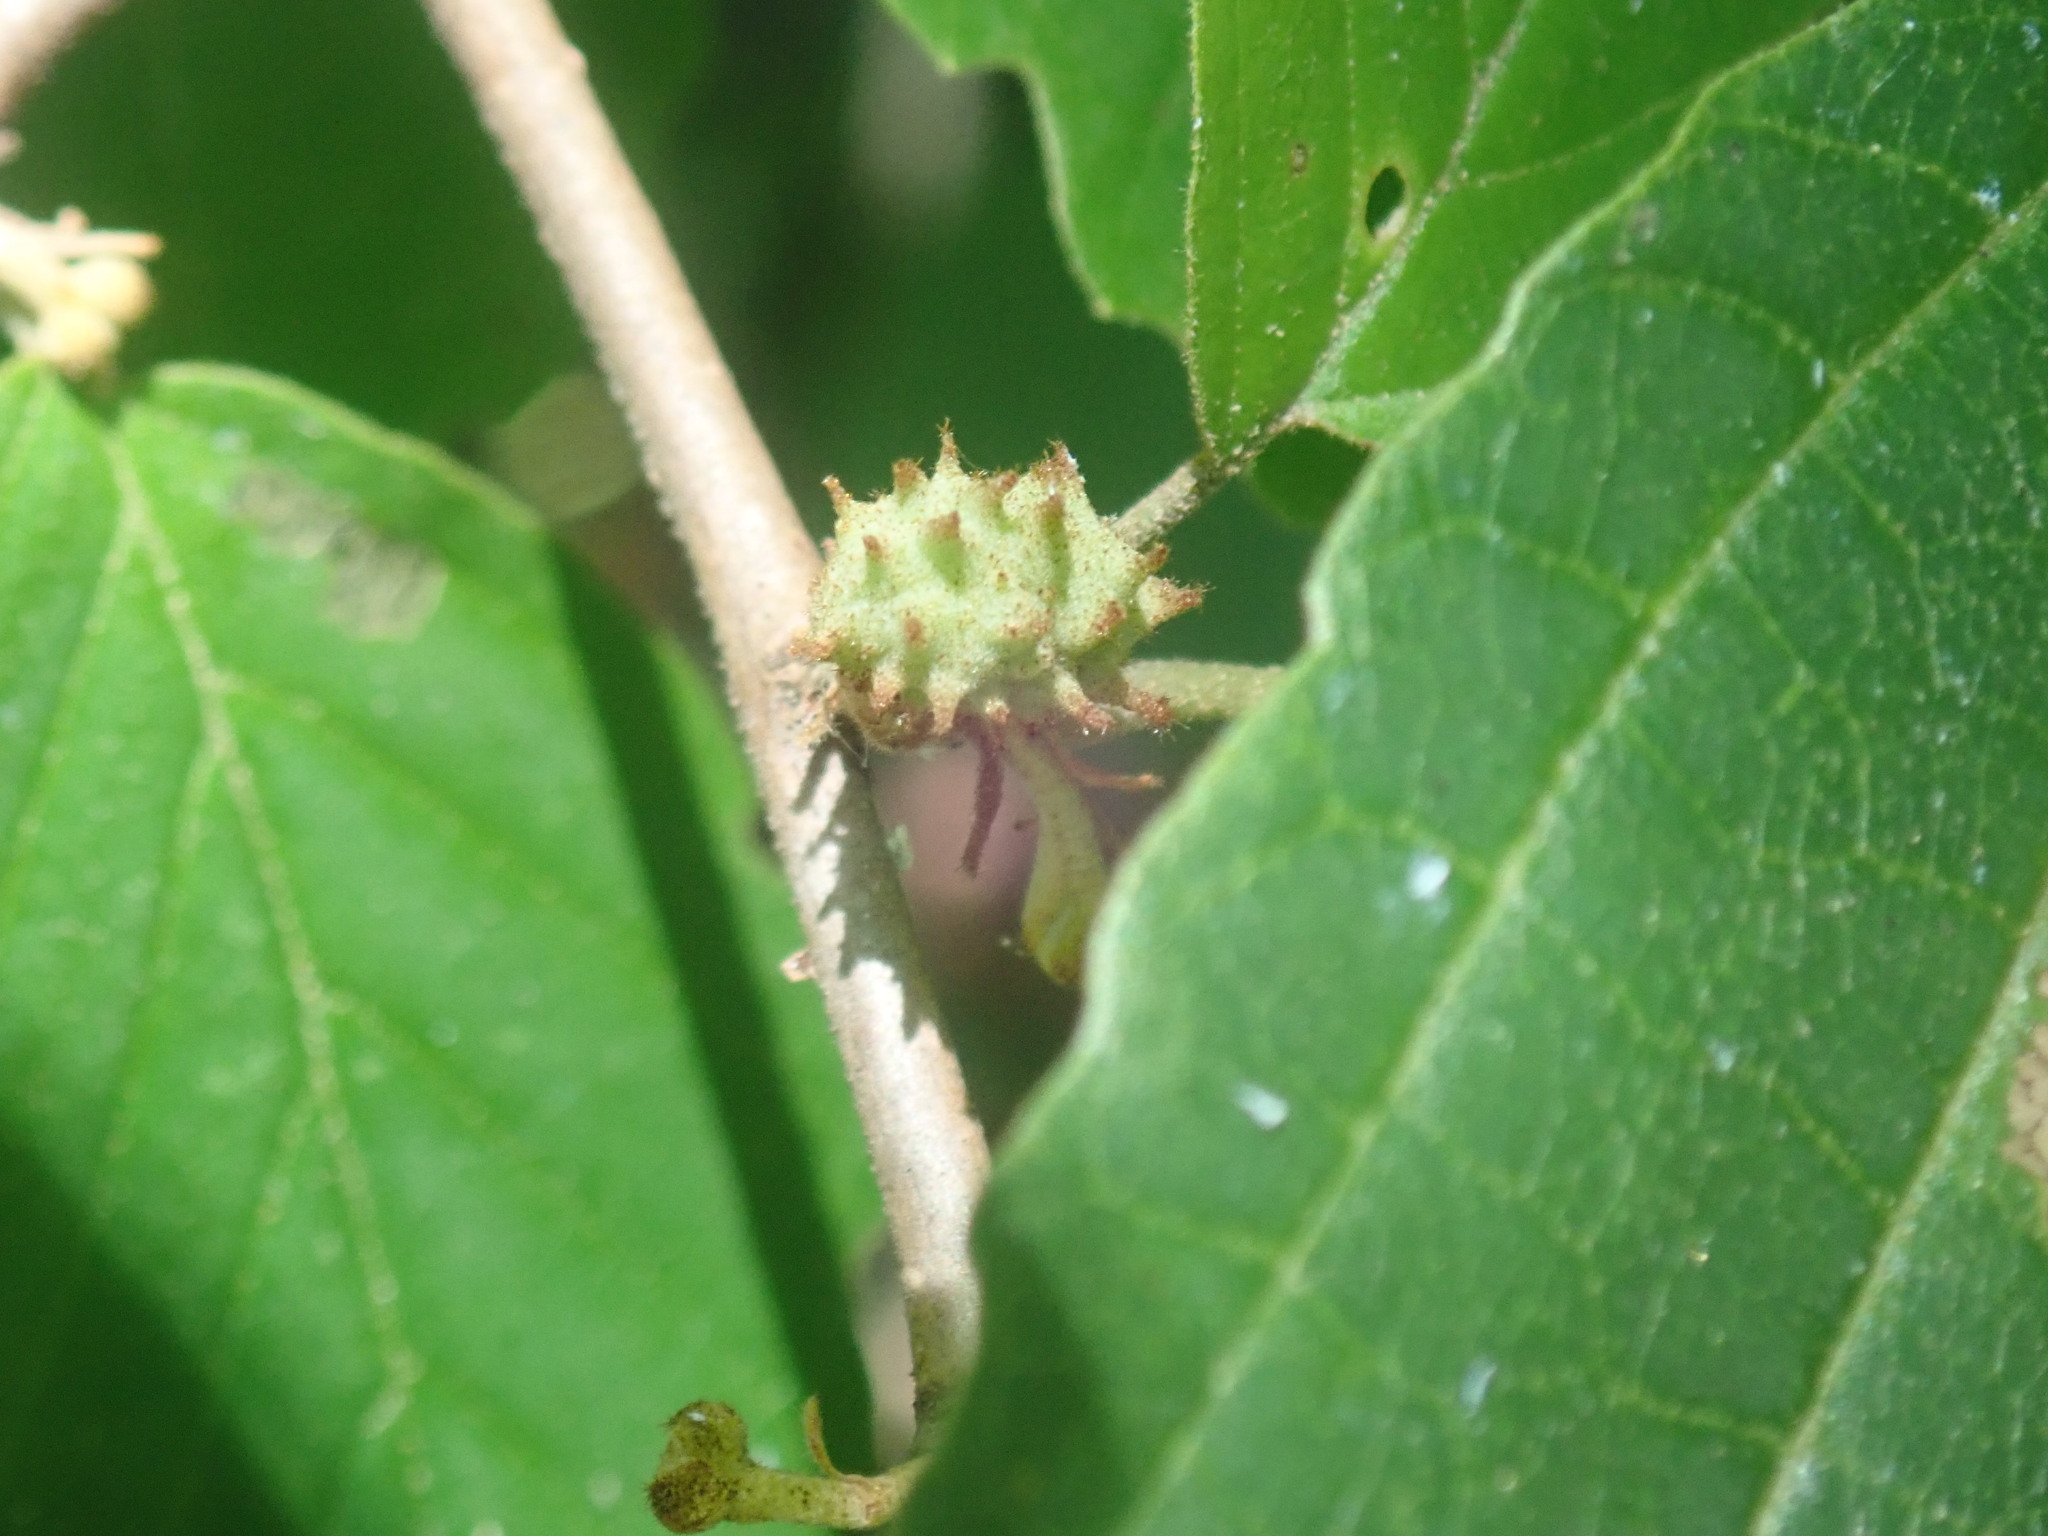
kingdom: Animalia
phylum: Arthropoda
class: Insecta
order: Hemiptera
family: Aphididae
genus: Hamamelistes
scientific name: Hamamelistes spinosus
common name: Witch hazel gall aphid
